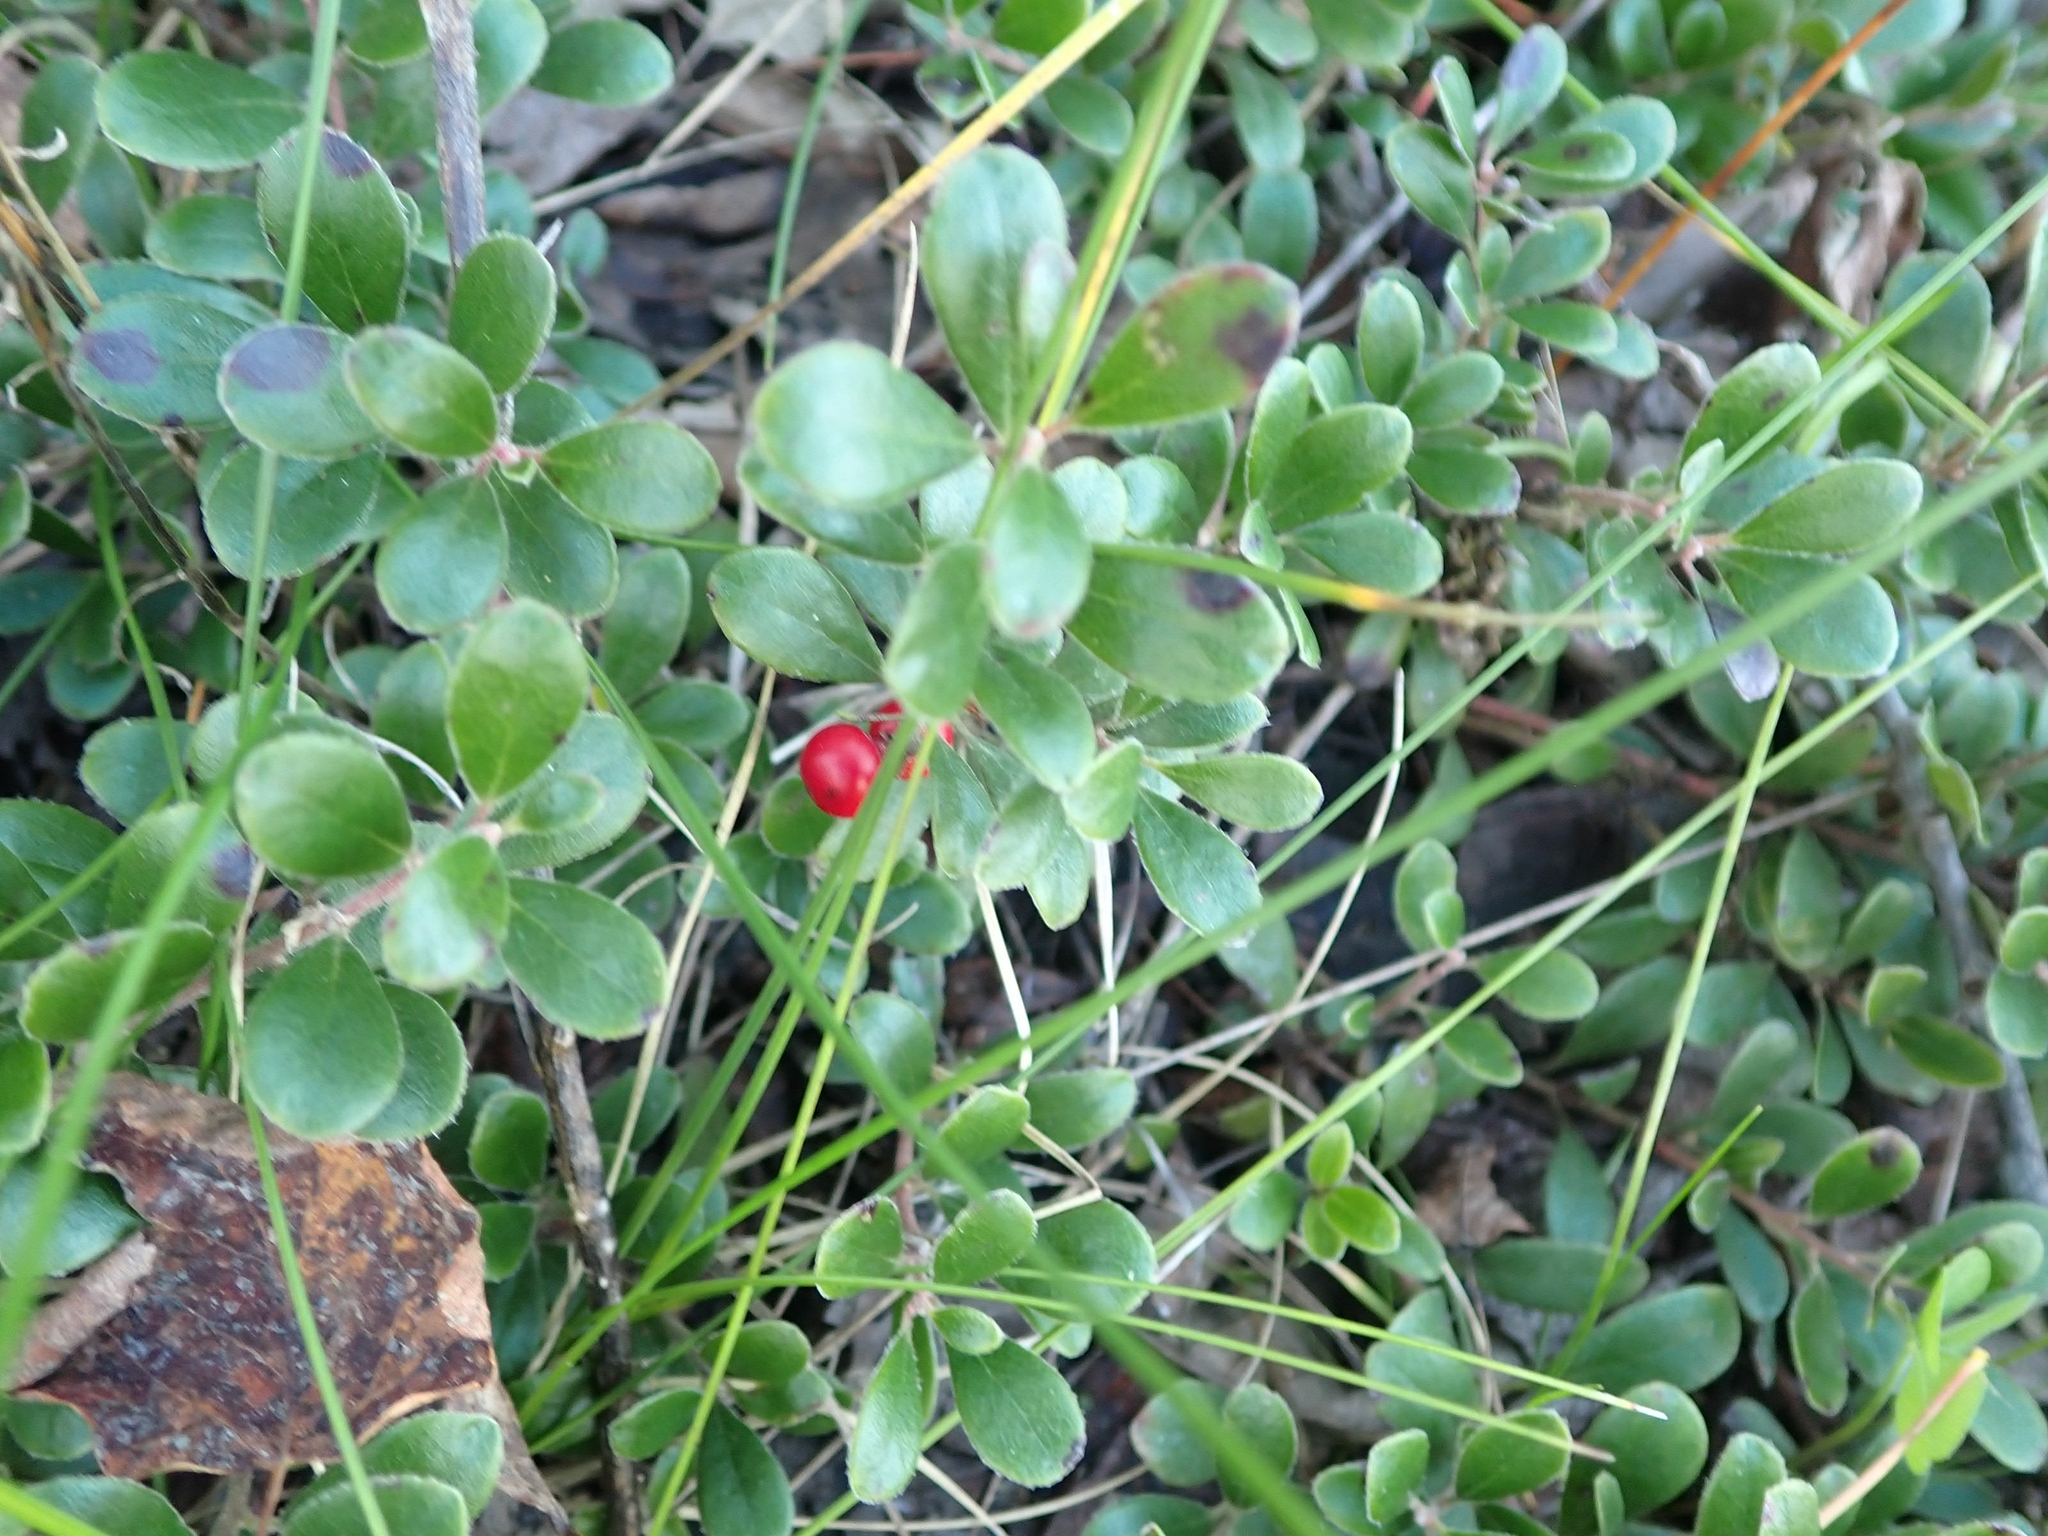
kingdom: Plantae
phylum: Tracheophyta
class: Magnoliopsida
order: Ericales
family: Ericaceae
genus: Arctostaphylos
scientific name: Arctostaphylos uva-ursi
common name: Bearberry
